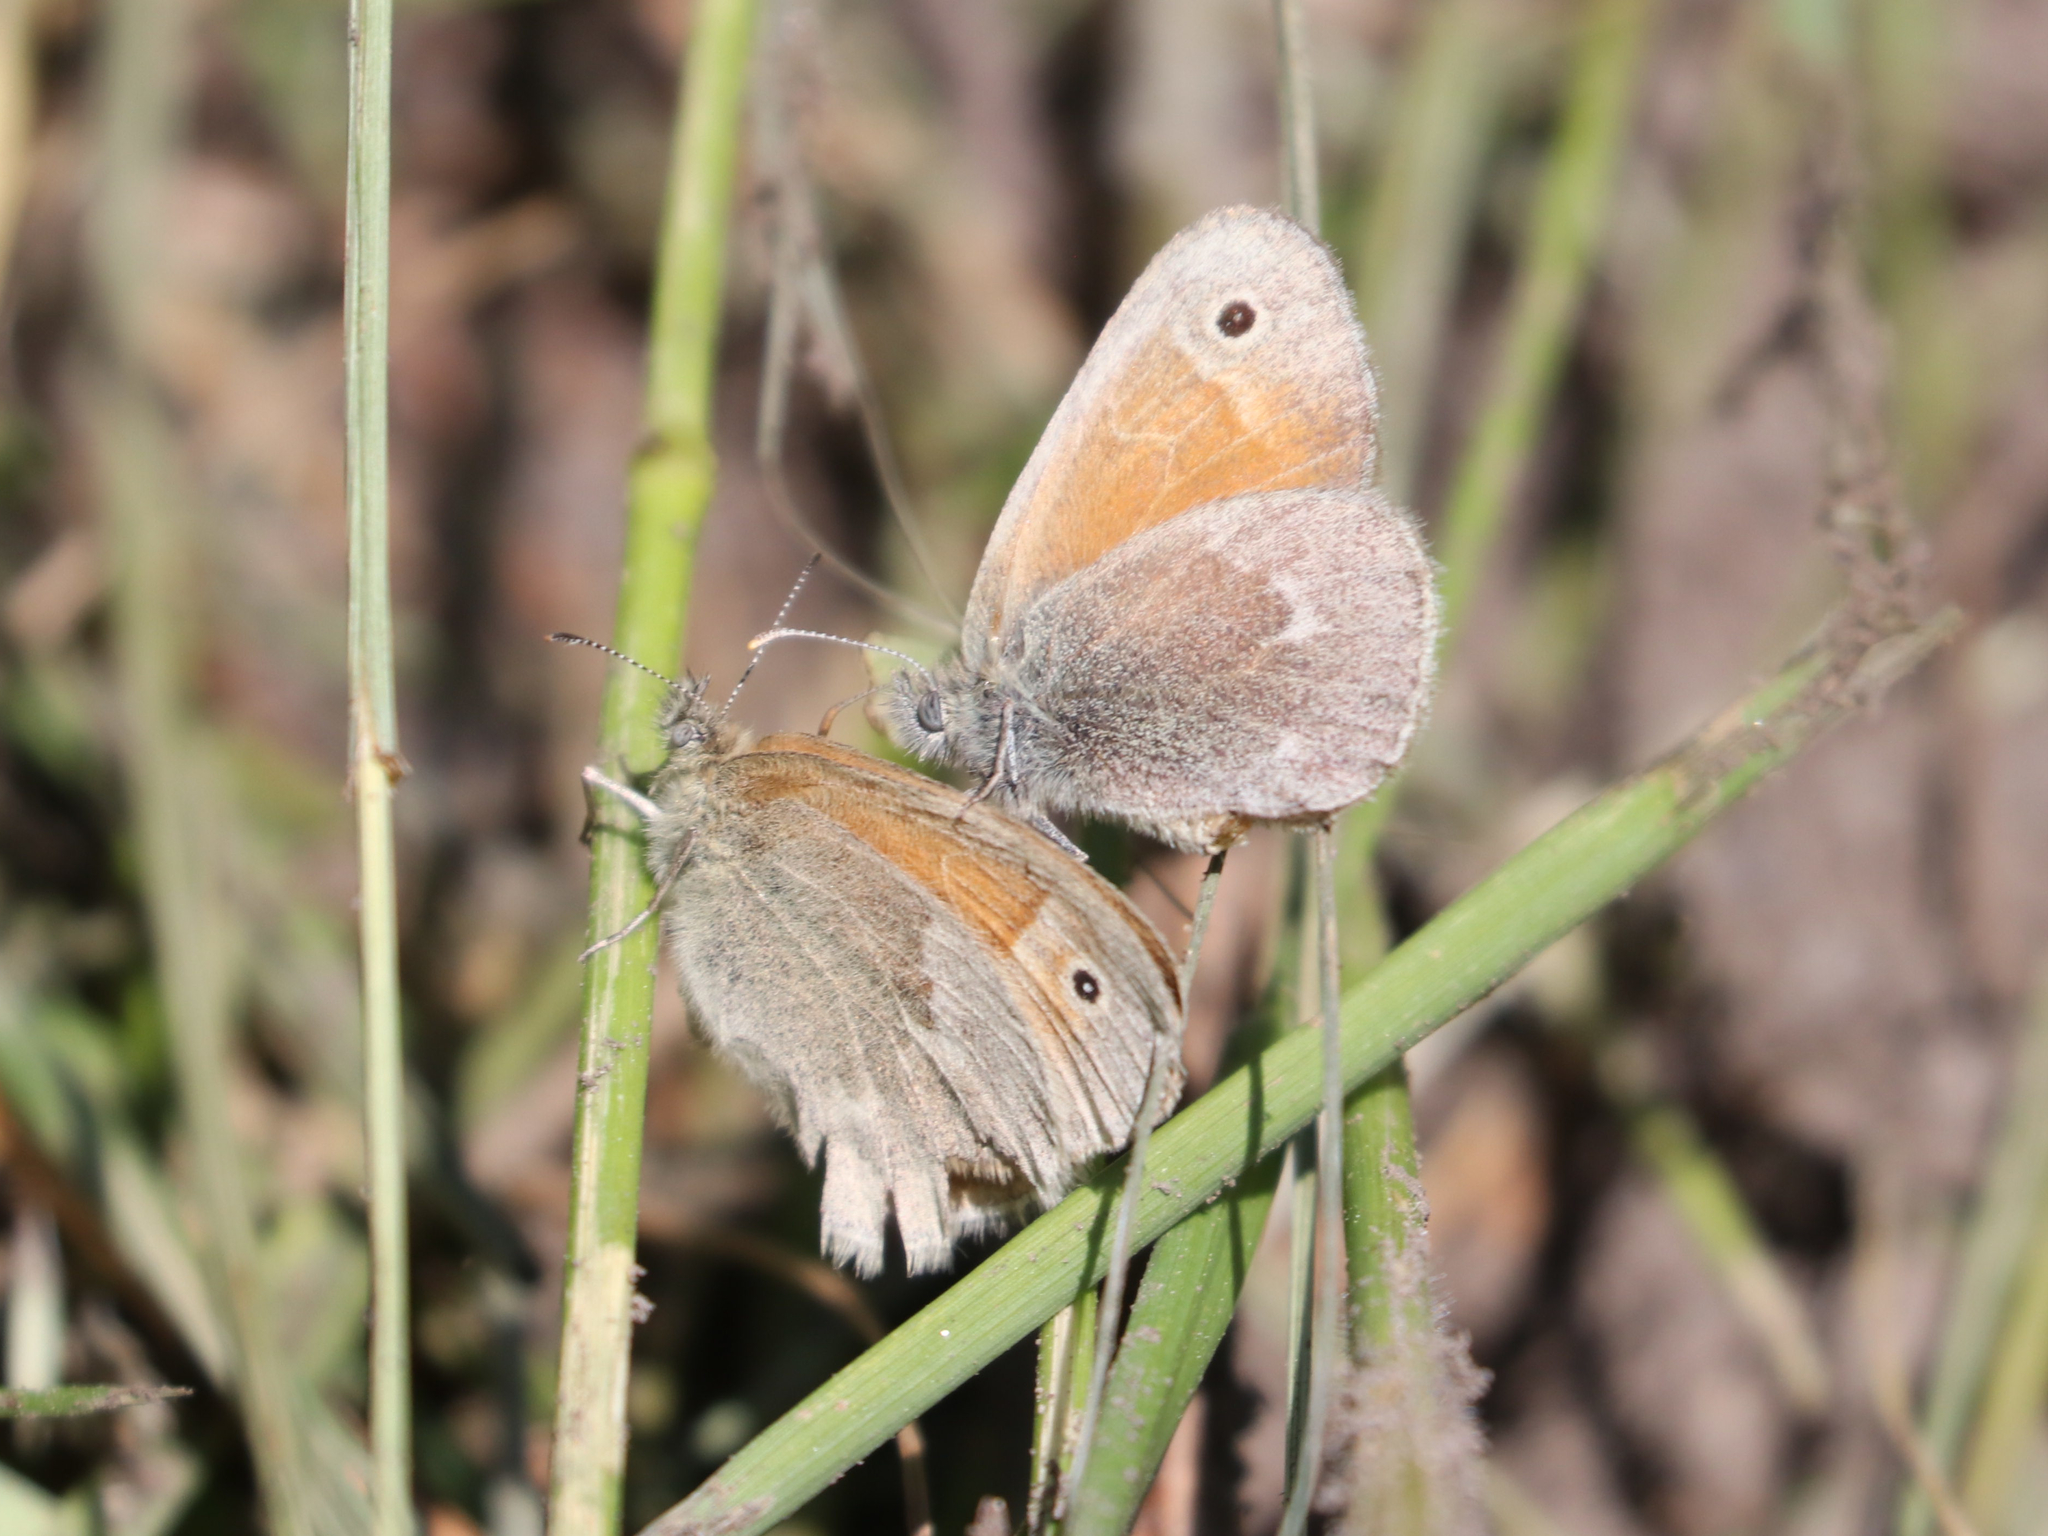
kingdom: Animalia
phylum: Arthropoda
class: Insecta
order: Lepidoptera
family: Nymphalidae
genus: Coenonympha
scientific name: Coenonympha california
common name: Common ringlet
